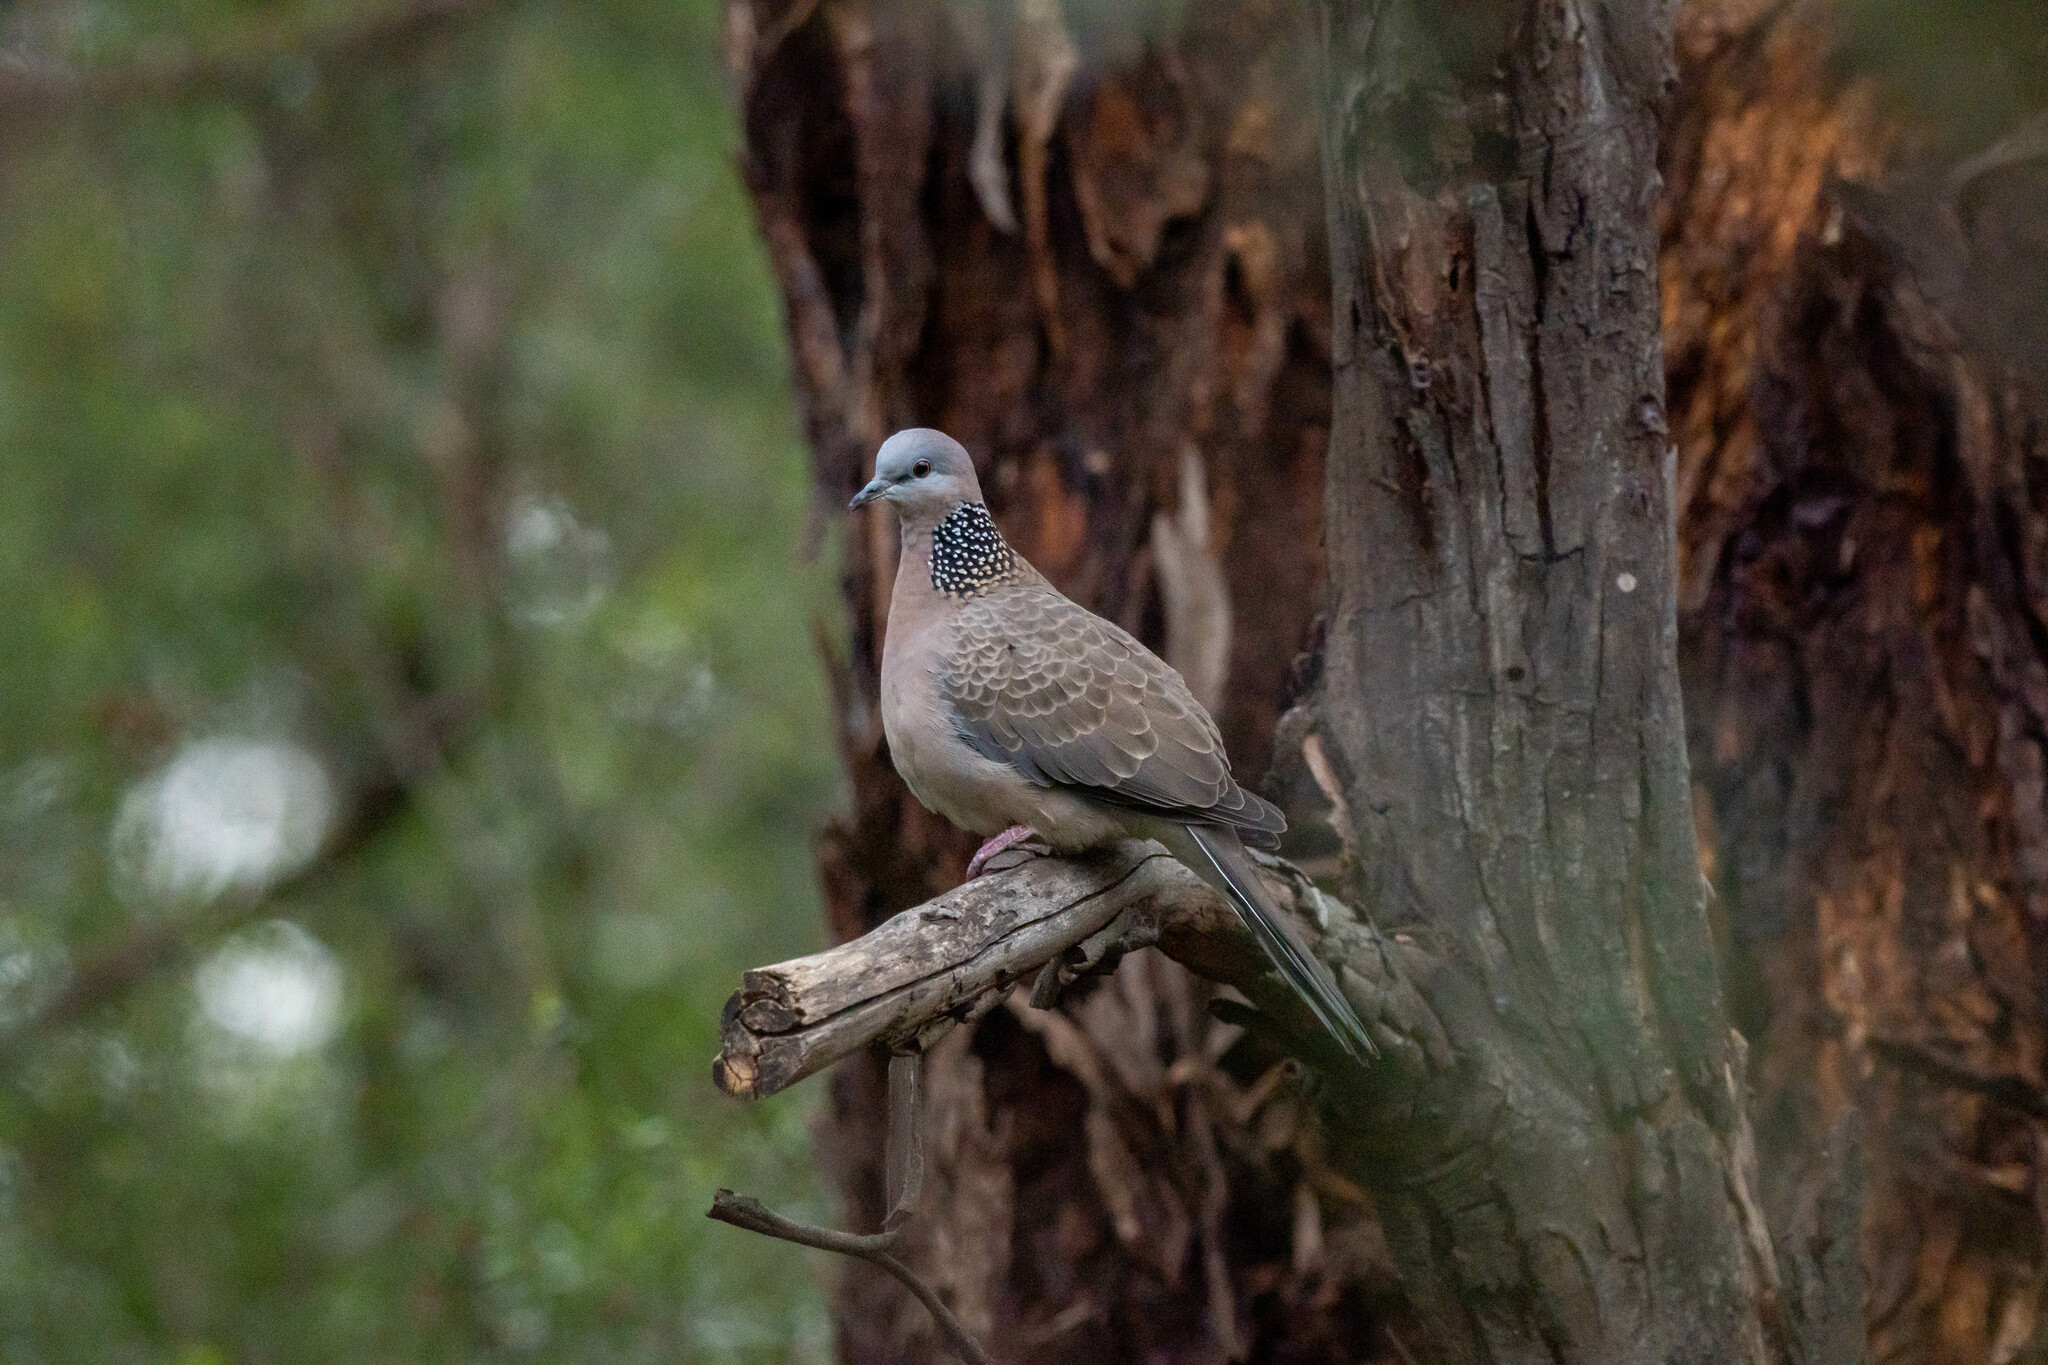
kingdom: Animalia
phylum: Chordata
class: Aves
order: Columbiformes
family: Columbidae
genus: Spilopelia
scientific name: Spilopelia chinensis
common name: Spotted dove
